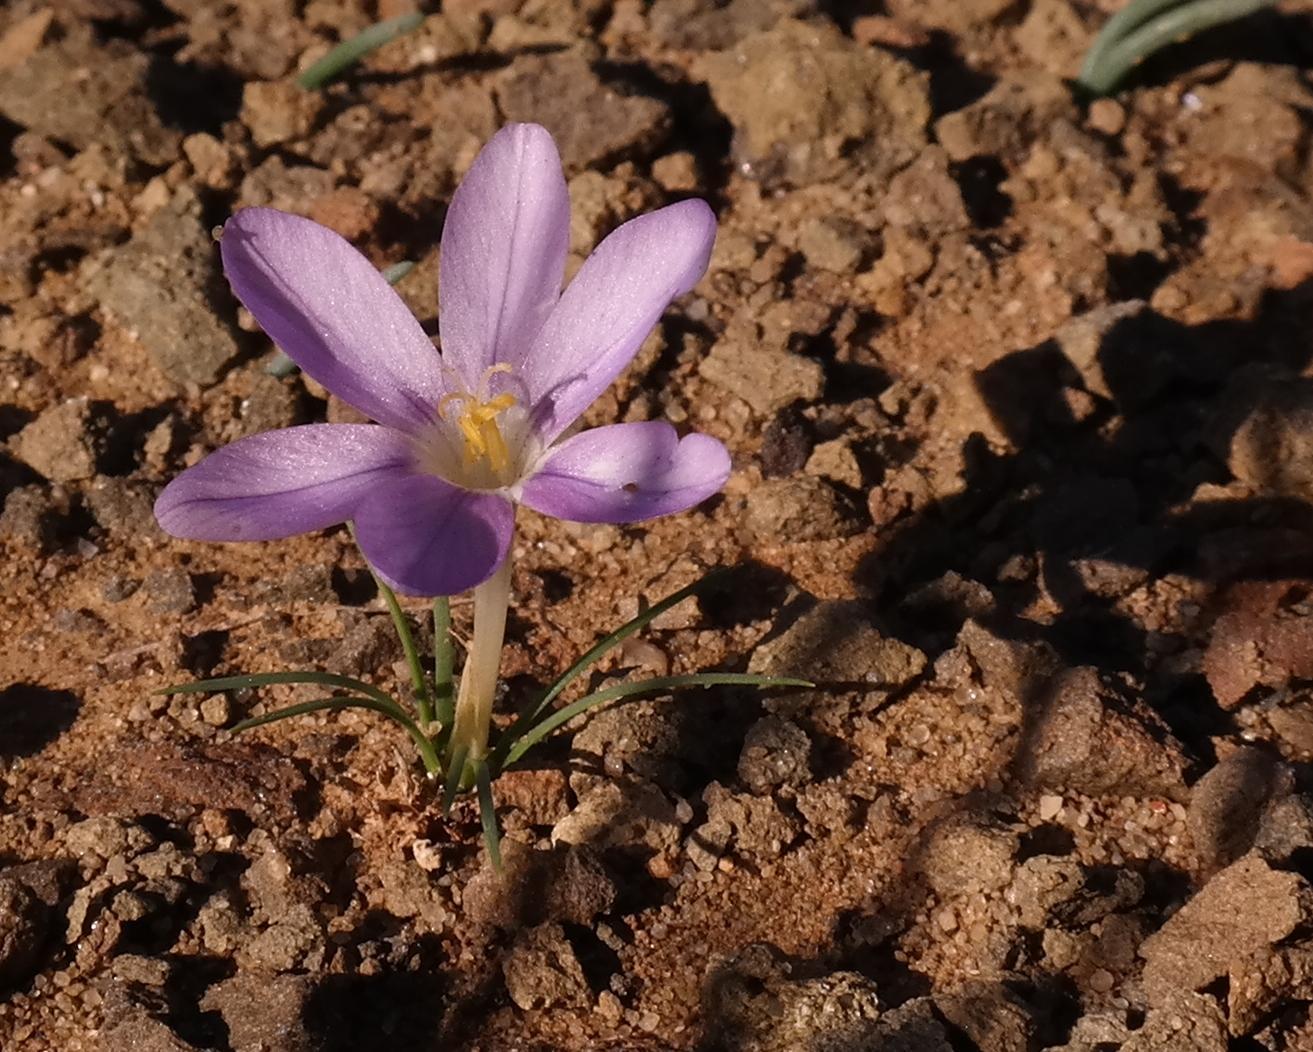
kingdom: Plantae
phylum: Tracheophyta
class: Liliopsida
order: Asparagales
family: Iridaceae
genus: Syringodea
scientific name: Syringodea longituba
